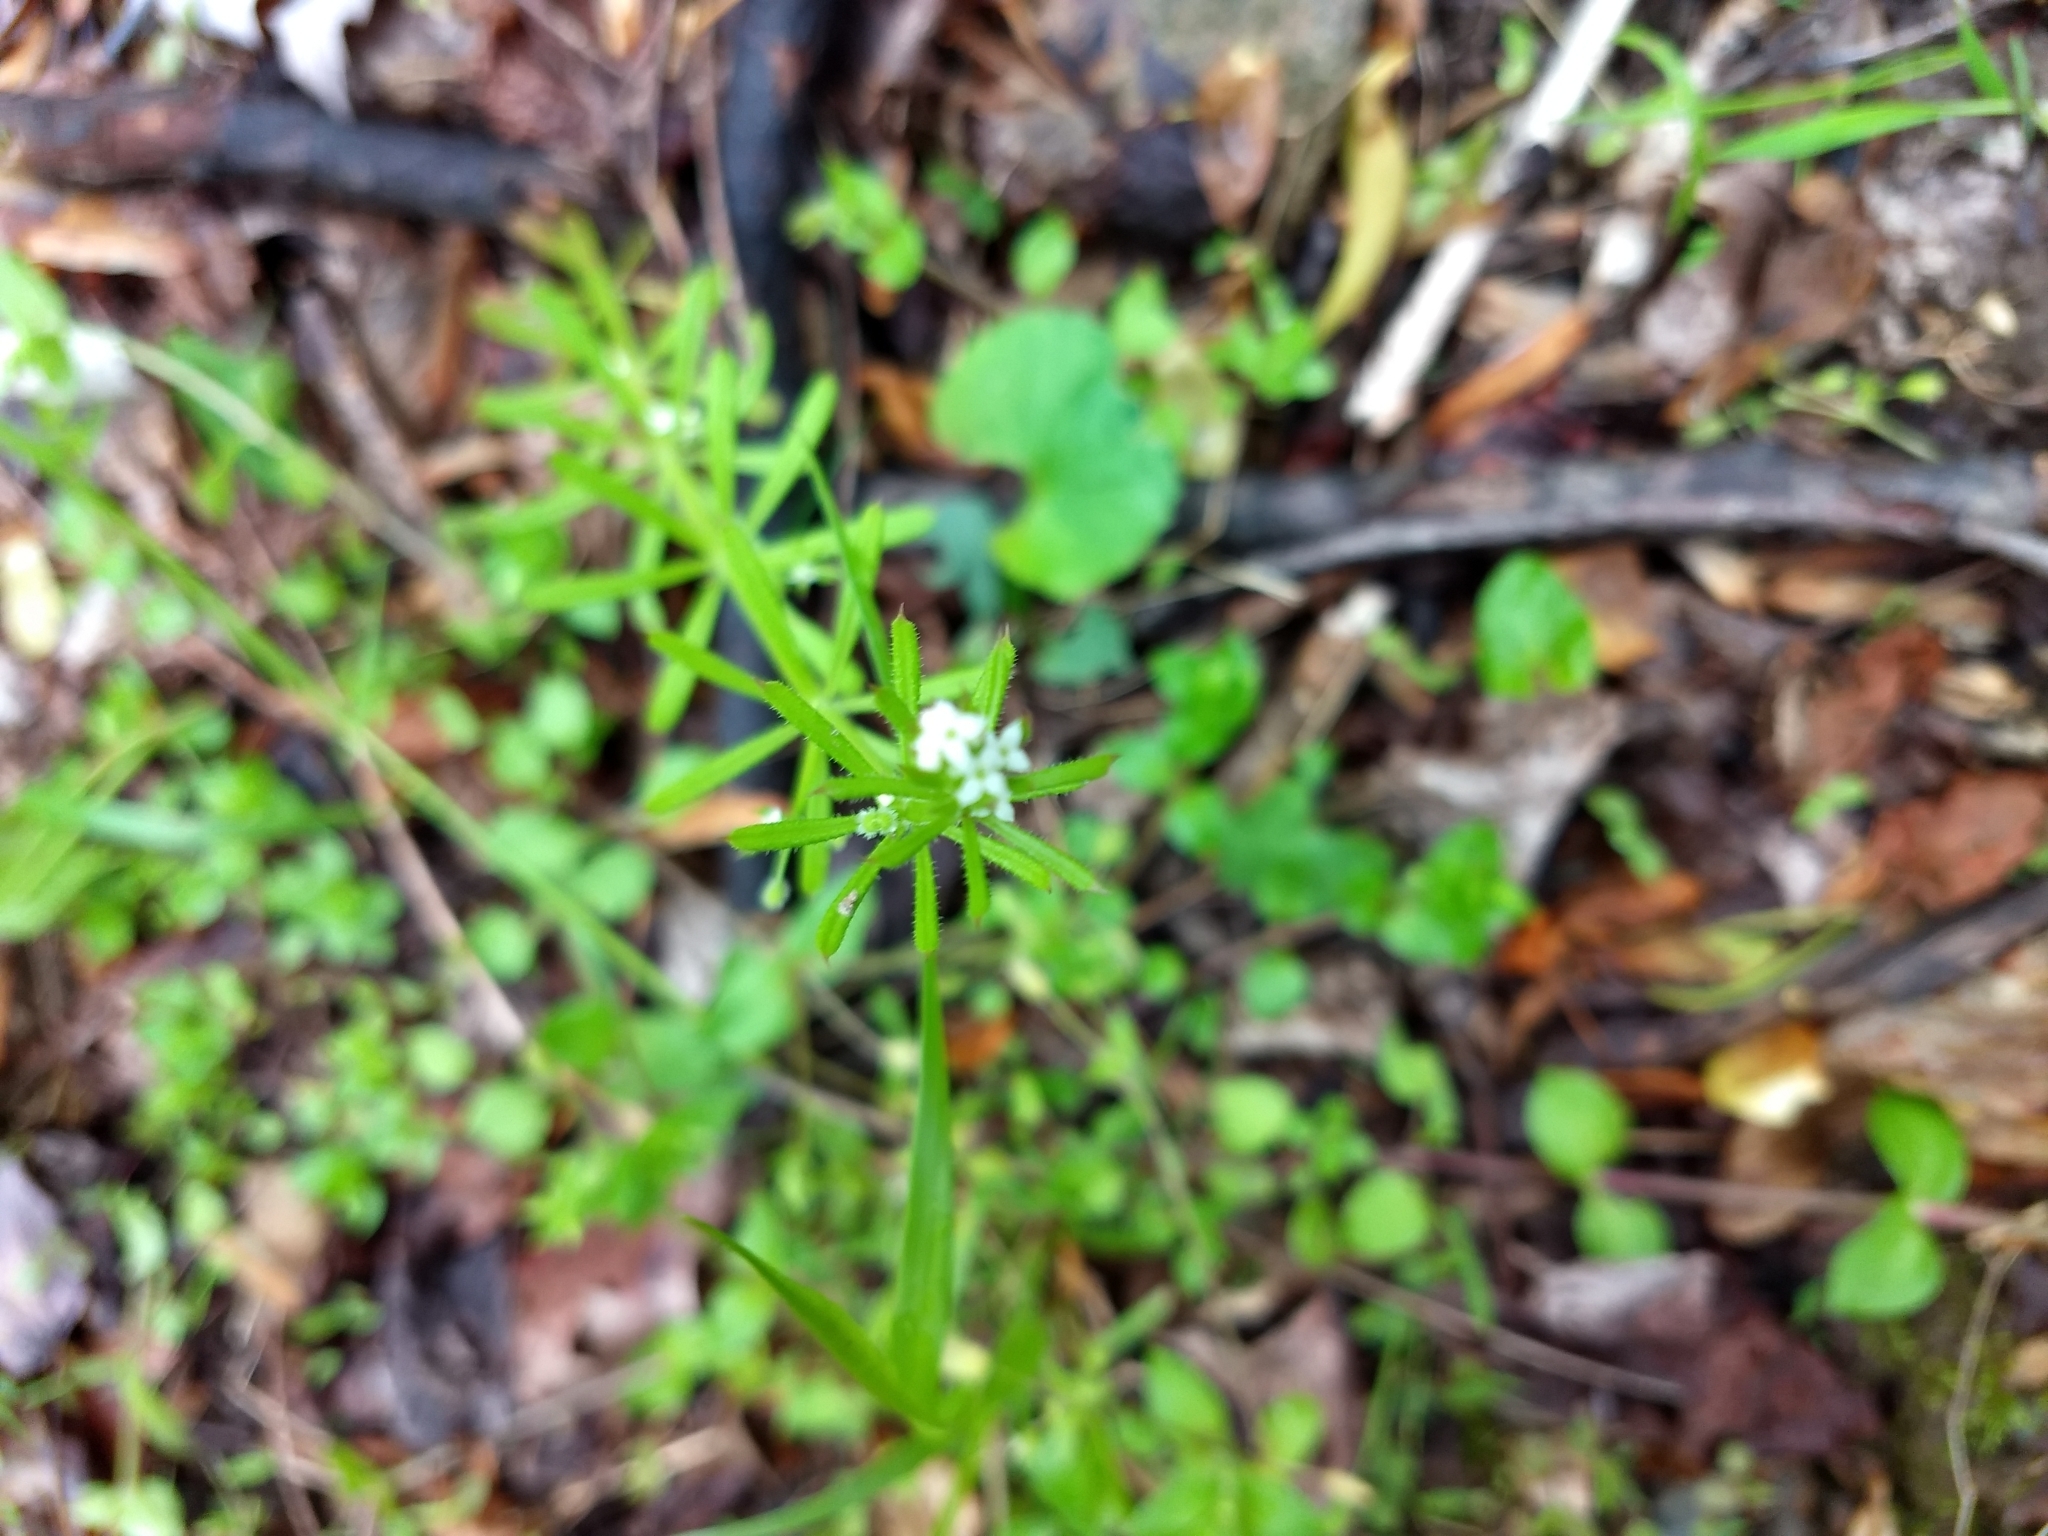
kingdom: Plantae
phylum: Tracheophyta
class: Magnoliopsida
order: Gentianales
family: Rubiaceae
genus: Galium
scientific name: Galium aparine
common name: Cleavers
